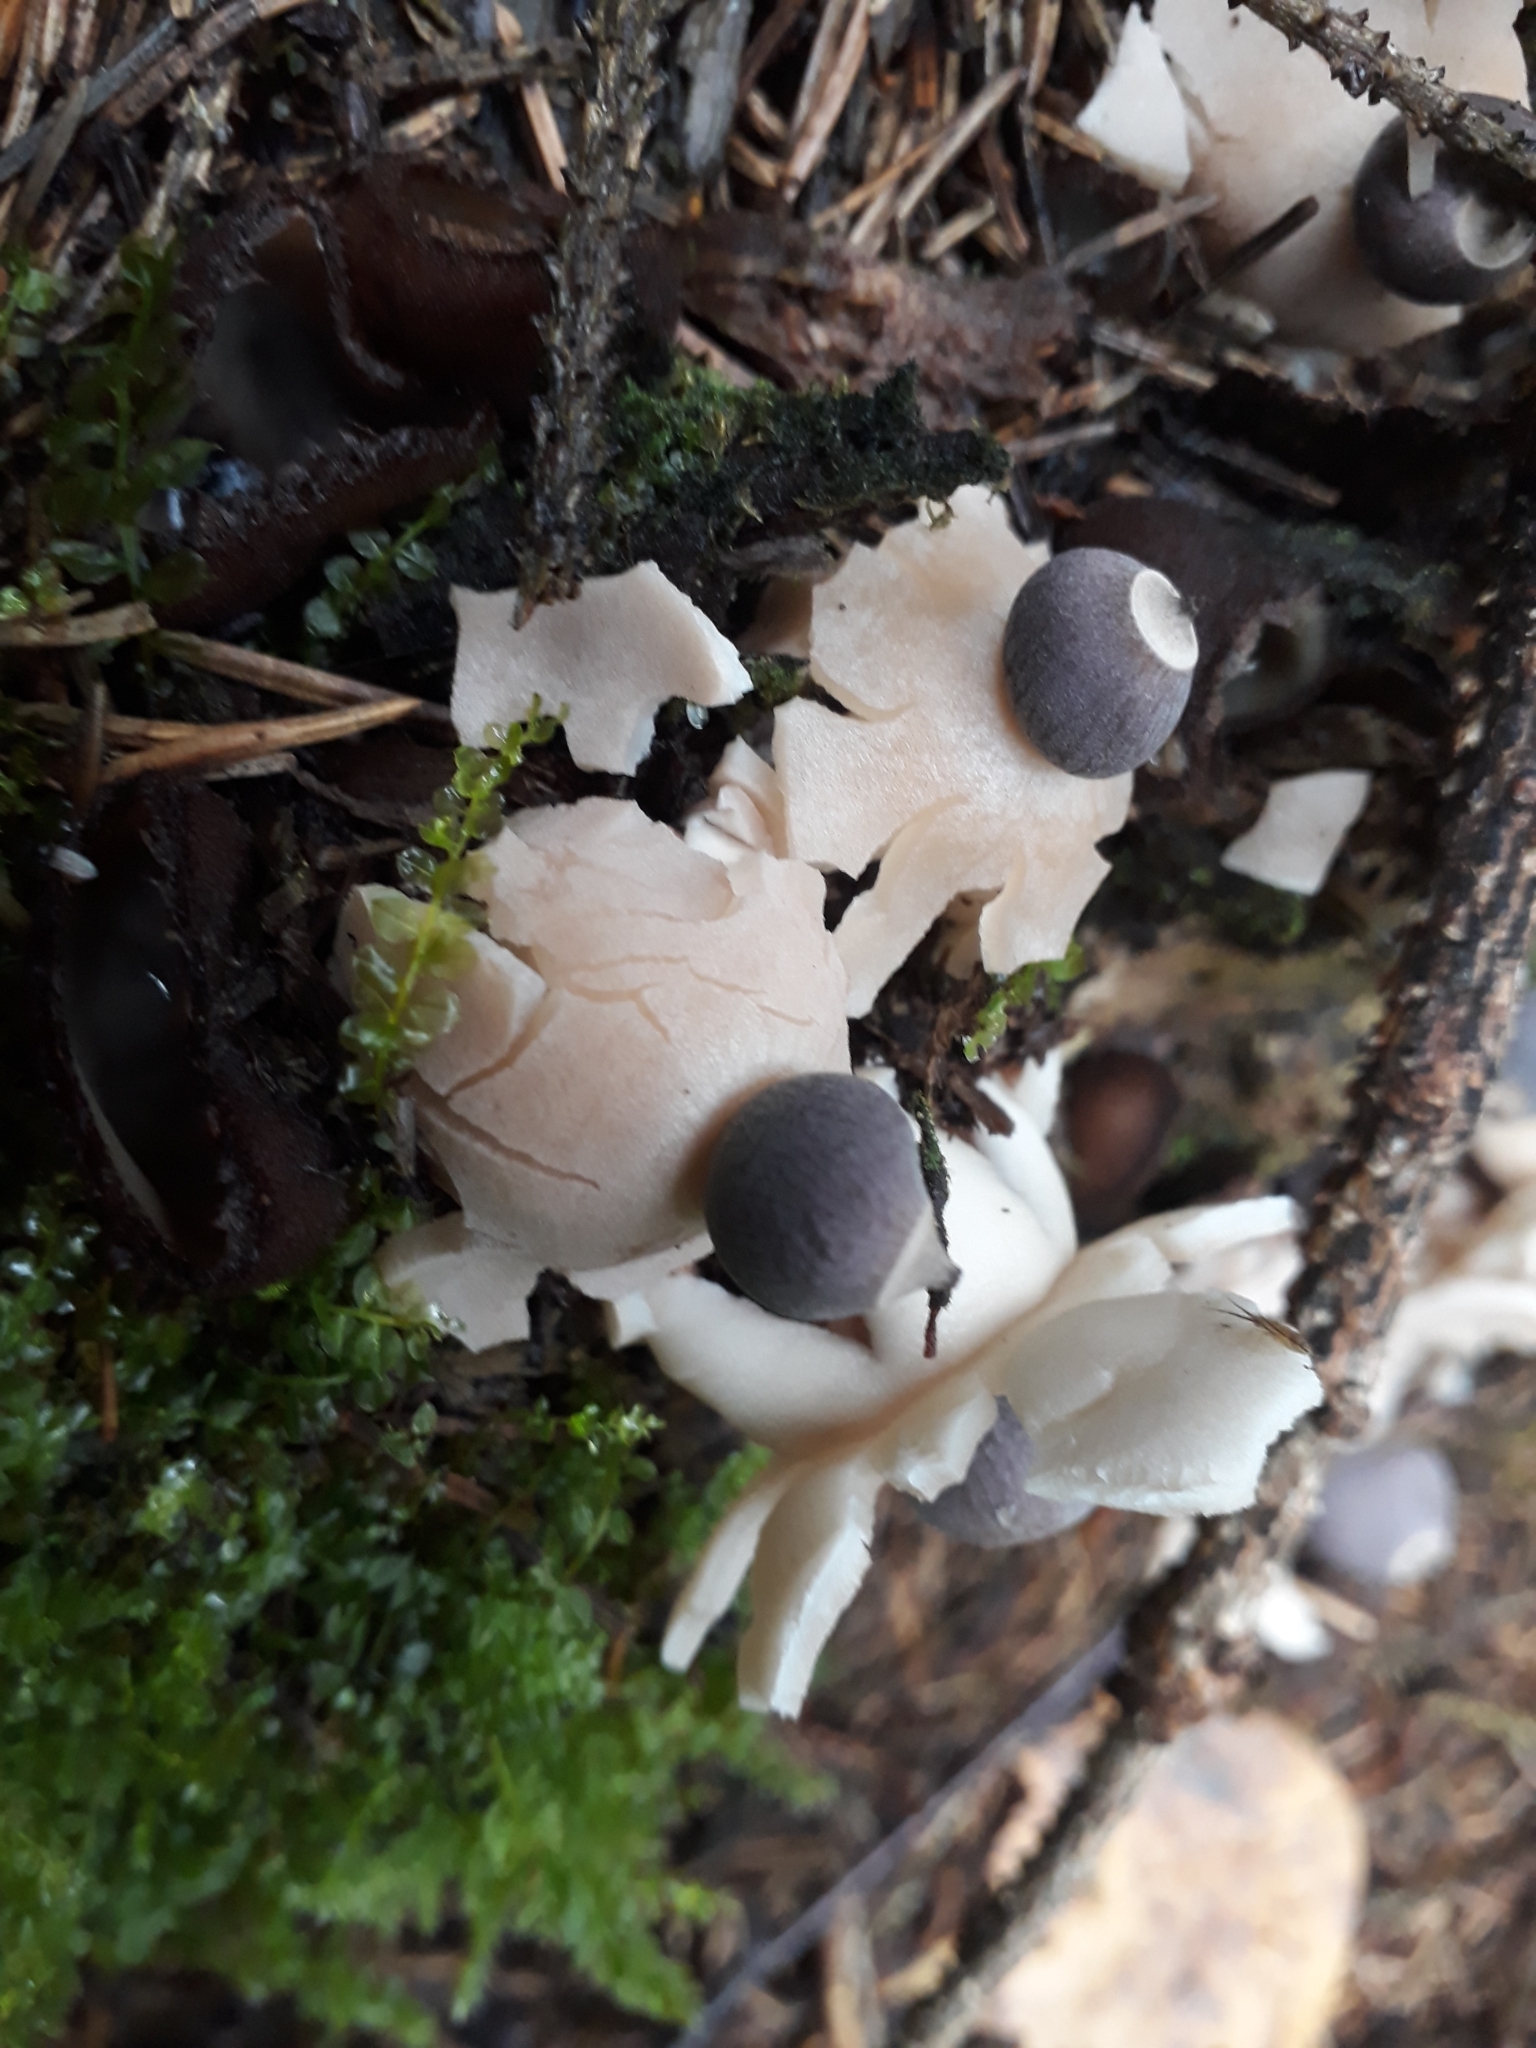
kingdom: Fungi
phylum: Basidiomycota
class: Agaricomycetes
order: Geastrales
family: Geastraceae
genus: Geastrum
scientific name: Geastrum quadrifidum
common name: Rayed earthstar
